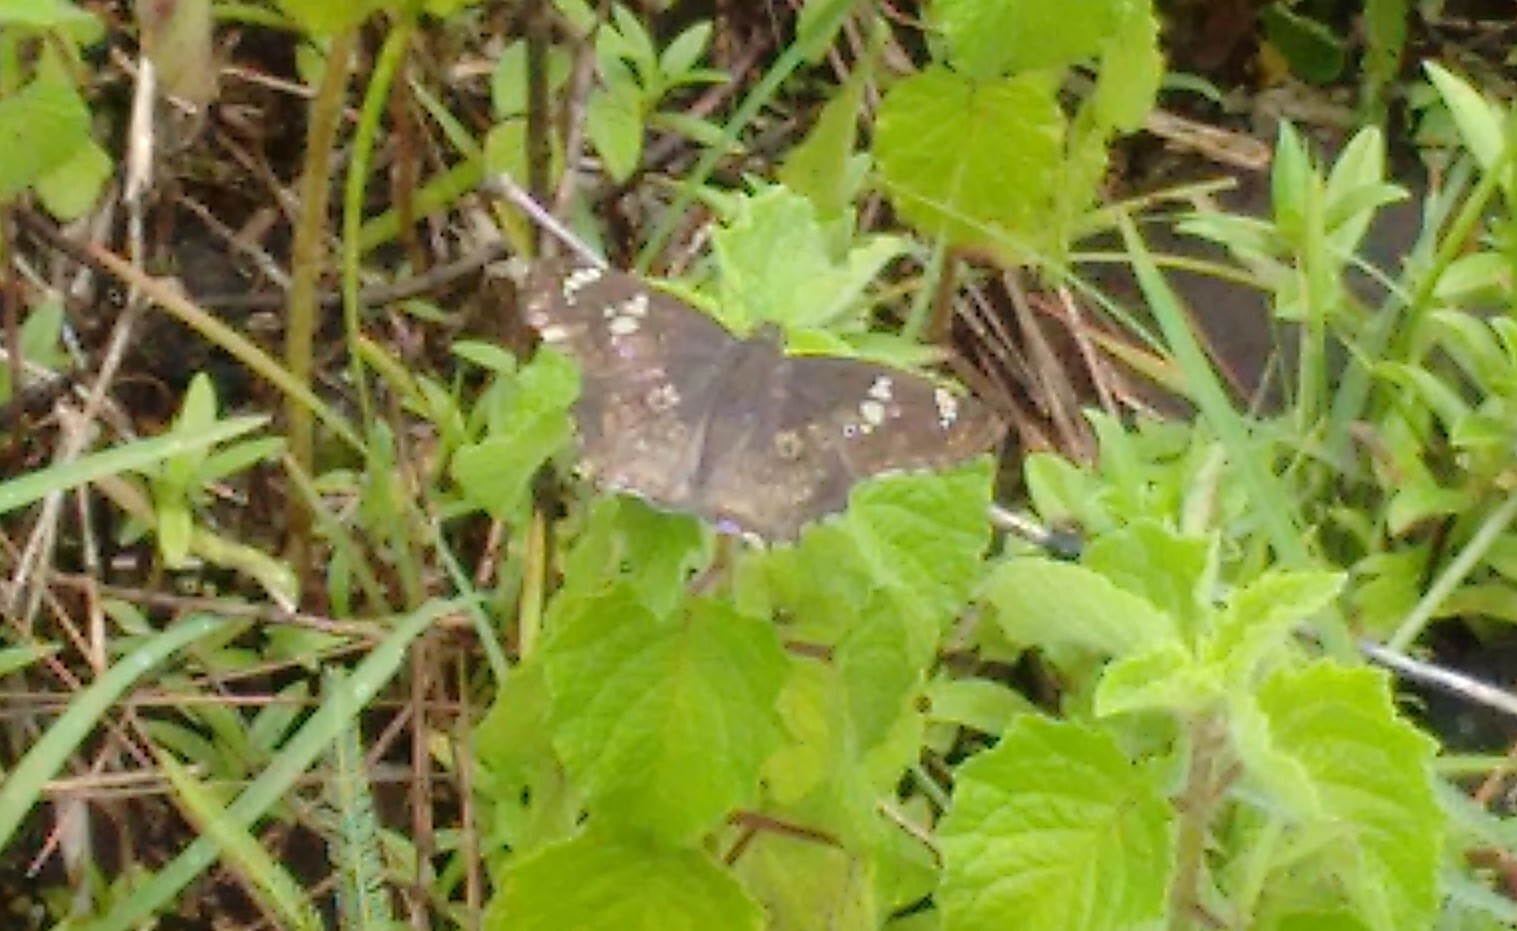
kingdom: Animalia
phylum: Arthropoda
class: Insecta
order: Lepidoptera
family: Hesperiidae
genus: Caprona
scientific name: Caprona ransonnettii
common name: Golden angle
